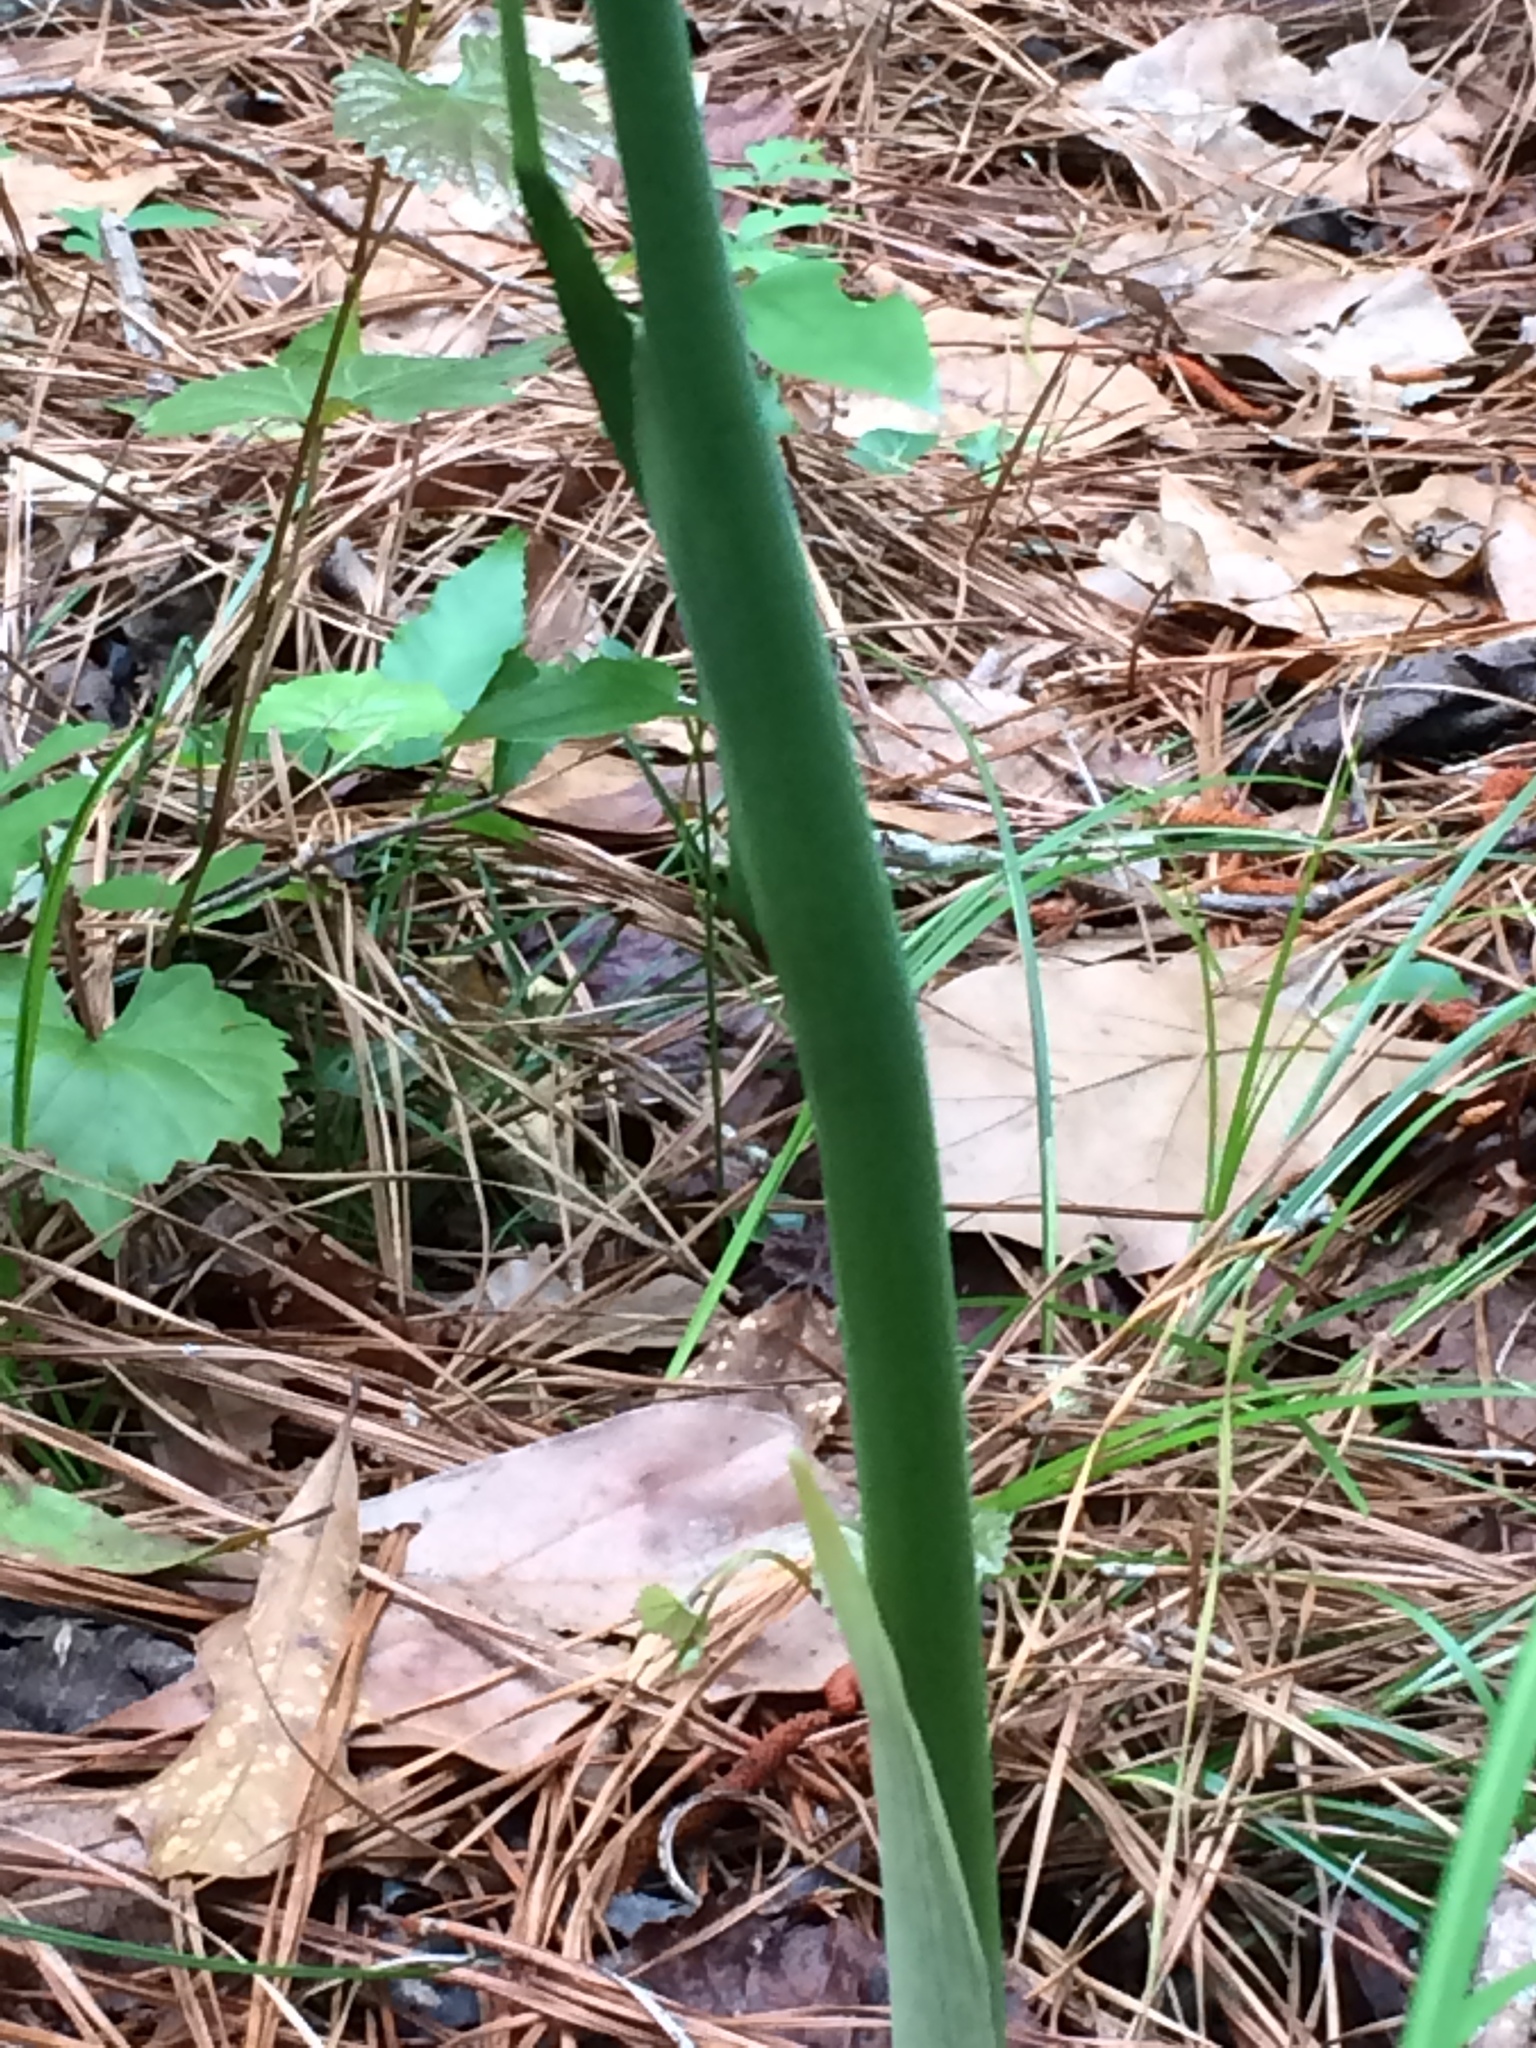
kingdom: Plantae
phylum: Tracheophyta
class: Liliopsida
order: Alismatales
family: Araceae
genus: Arisaema
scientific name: Arisaema dracontium
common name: Dragon-arum
